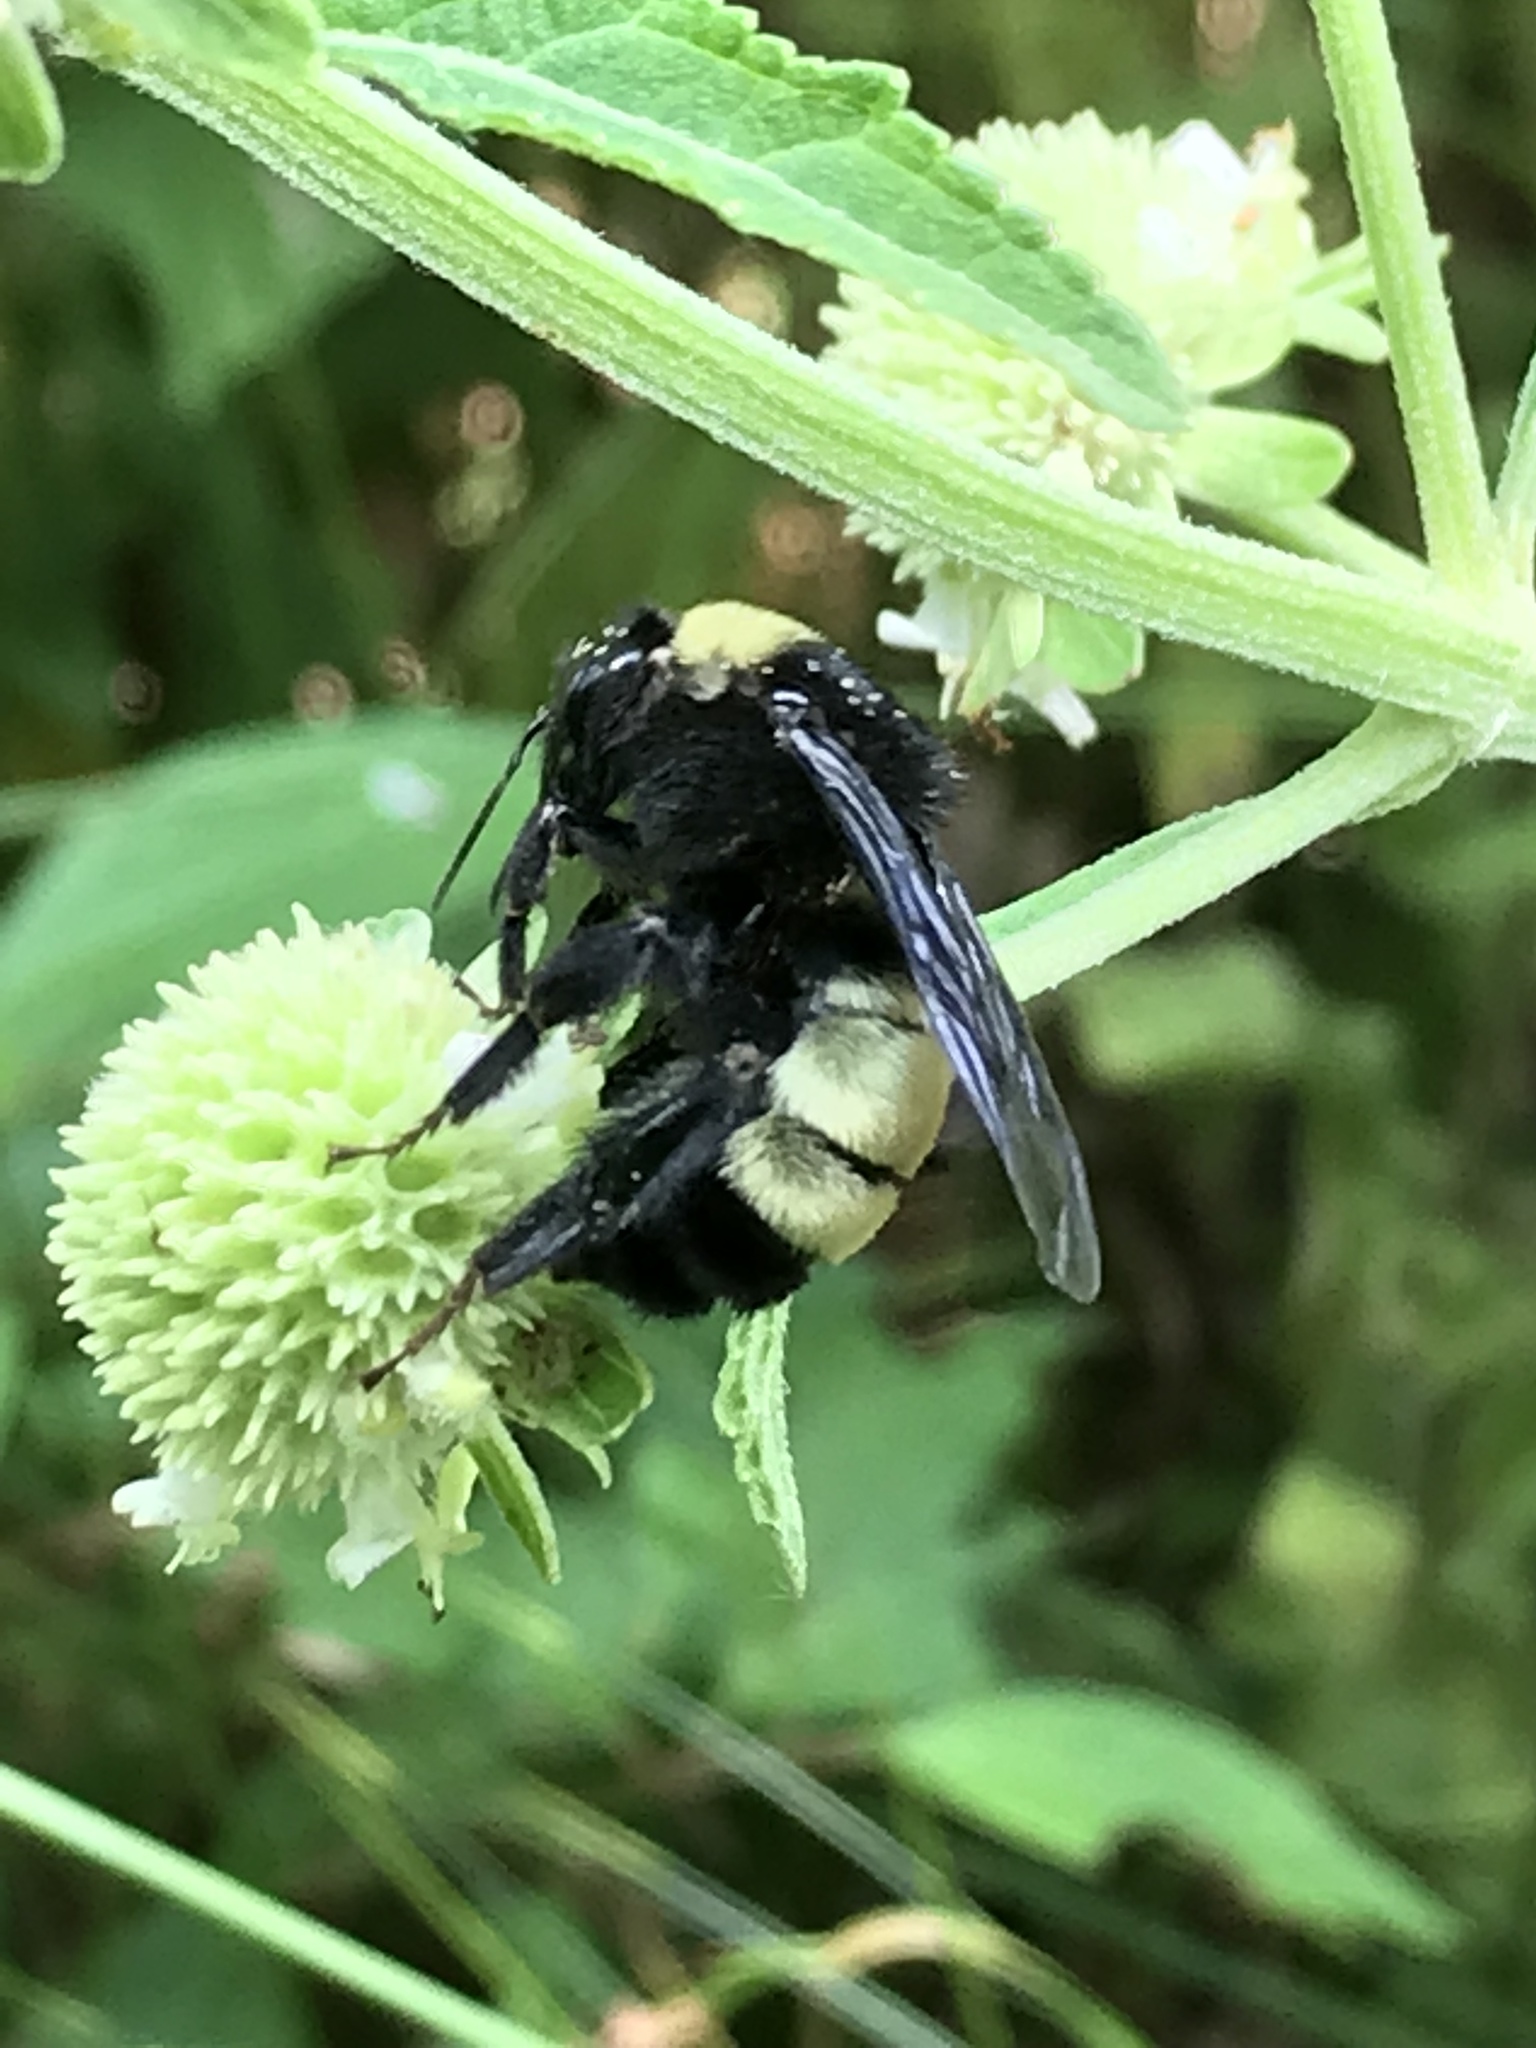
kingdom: Animalia
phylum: Arthropoda
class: Insecta
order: Hymenoptera
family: Apidae
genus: Bombus
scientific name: Bombus pensylvanicus
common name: Bumble bee
